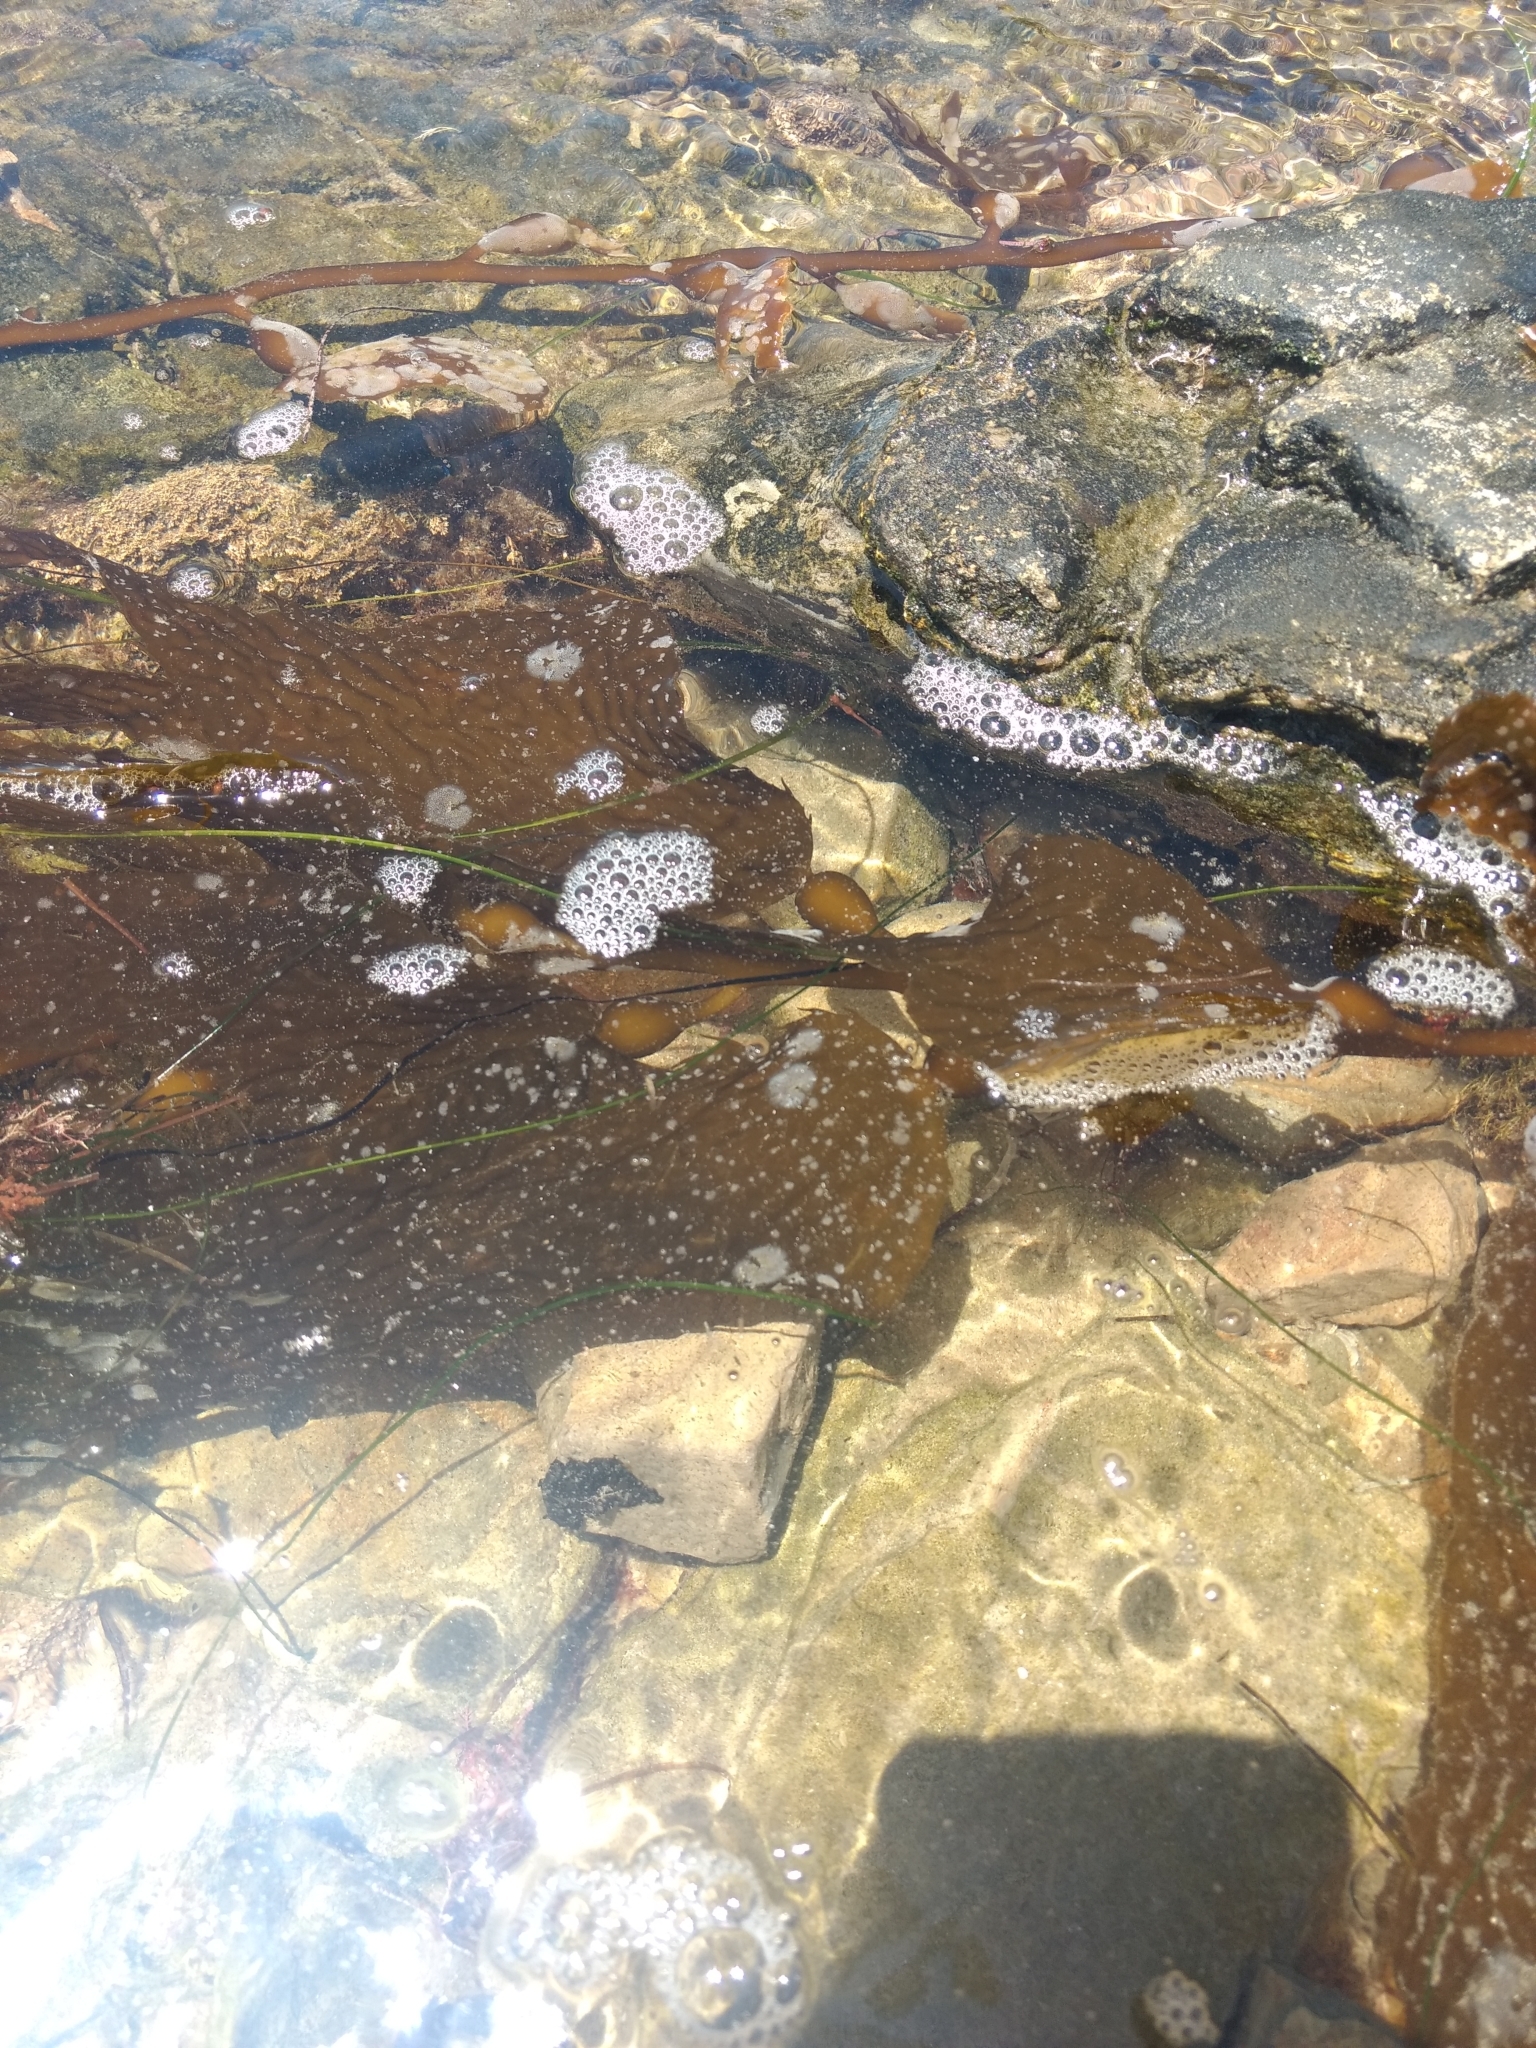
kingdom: Chromista
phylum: Ochrophyta
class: Phaeophyceae
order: Laminariales
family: Laminariaceae
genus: Macrocystis
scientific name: Macrocystis pyrifera
